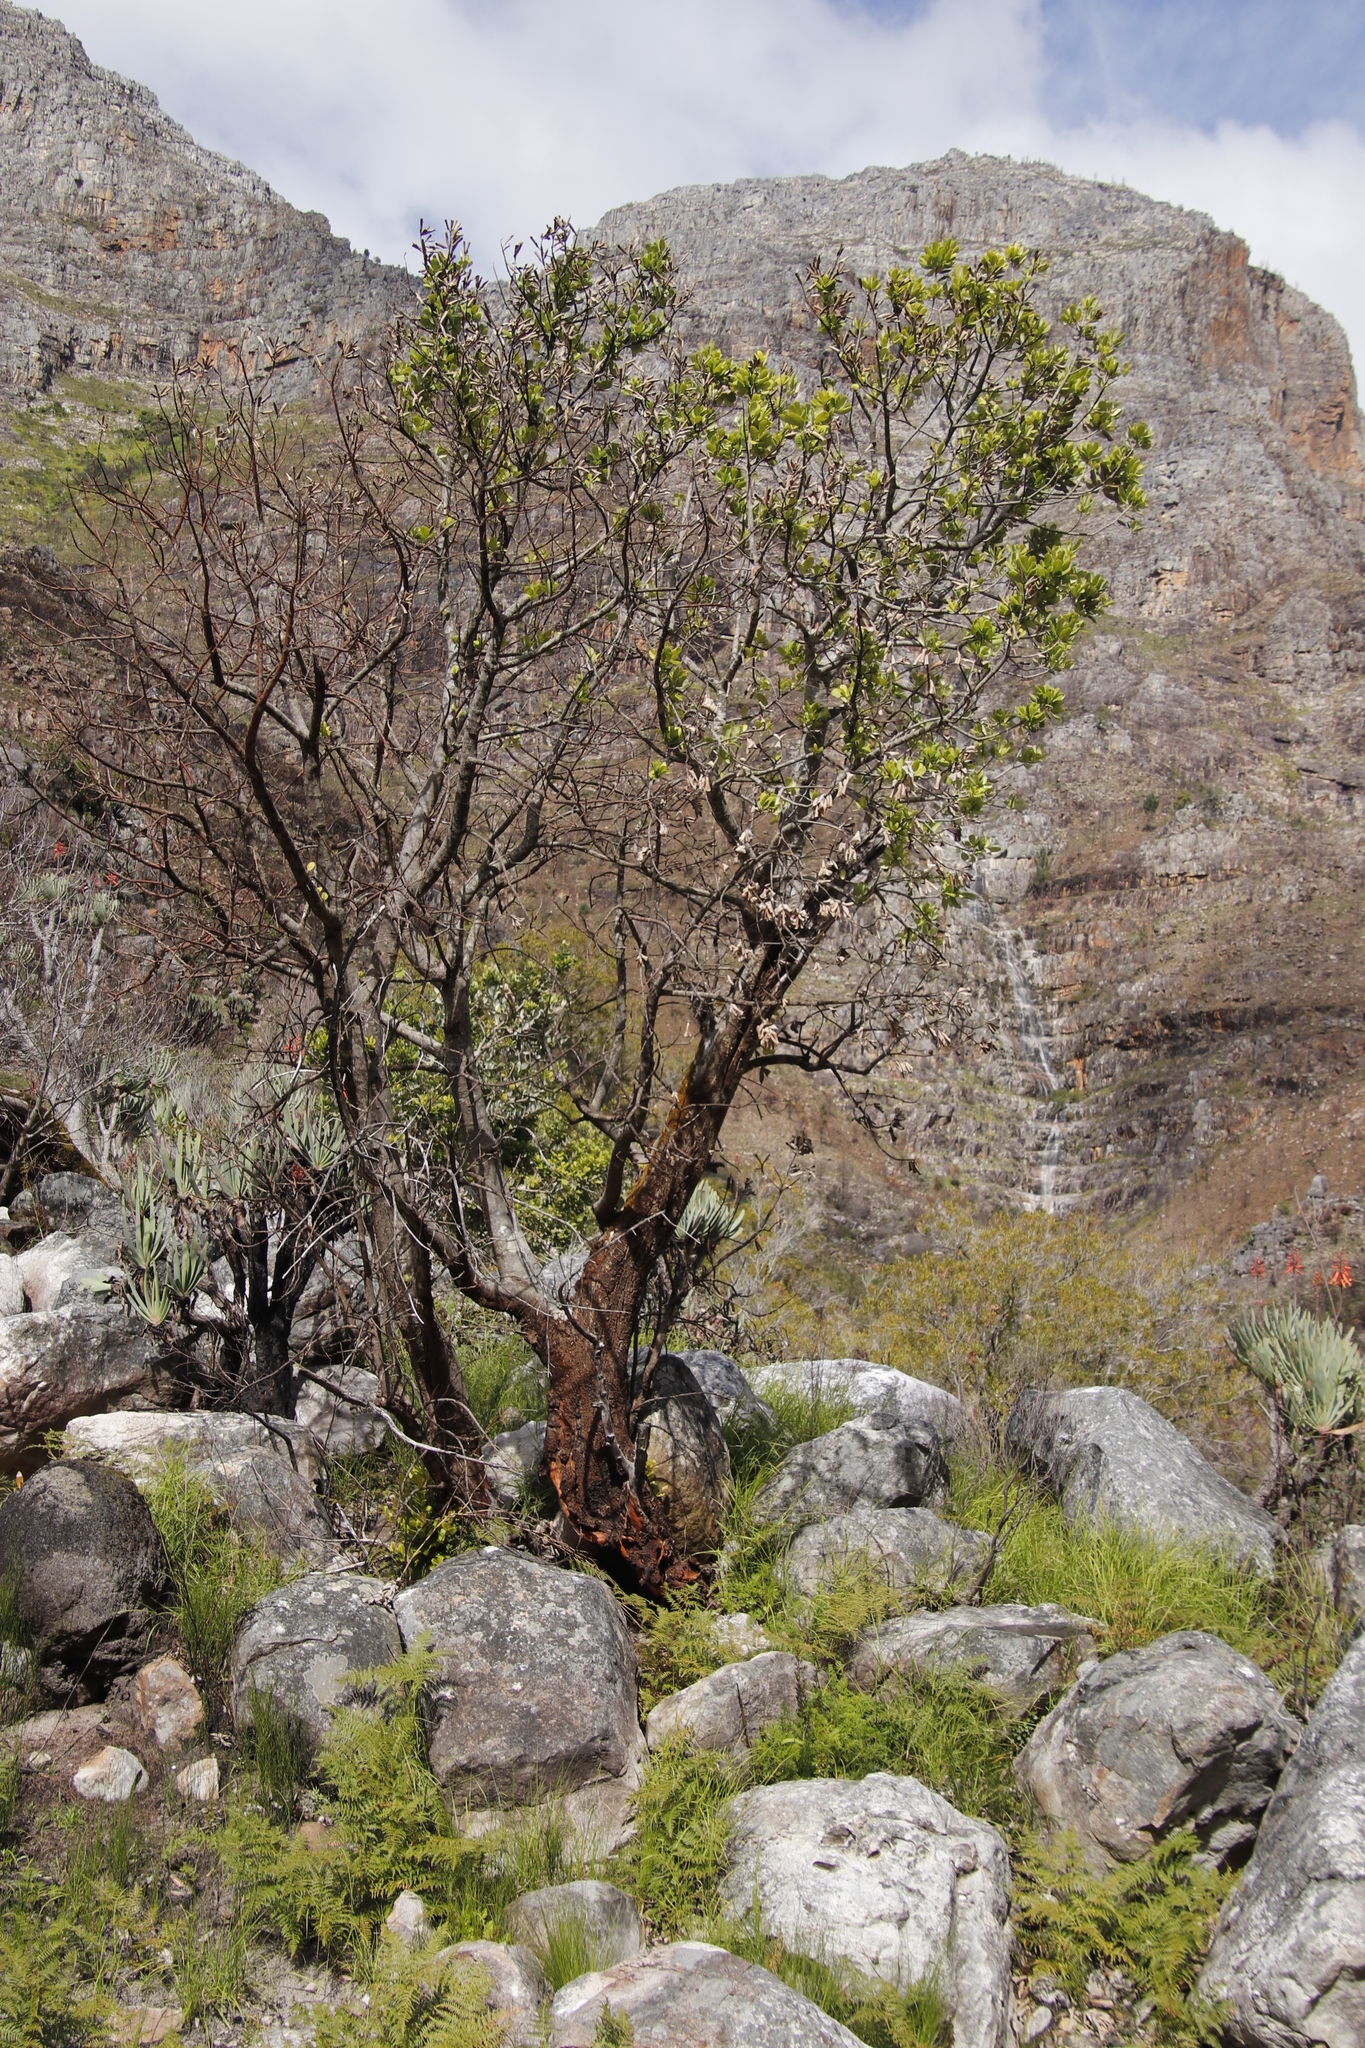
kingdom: Plantae
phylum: Tracheophyta
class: Magnoliopsida
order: Sapindales
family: Anacardiaceae
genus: Heeria
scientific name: Heeria argentea
